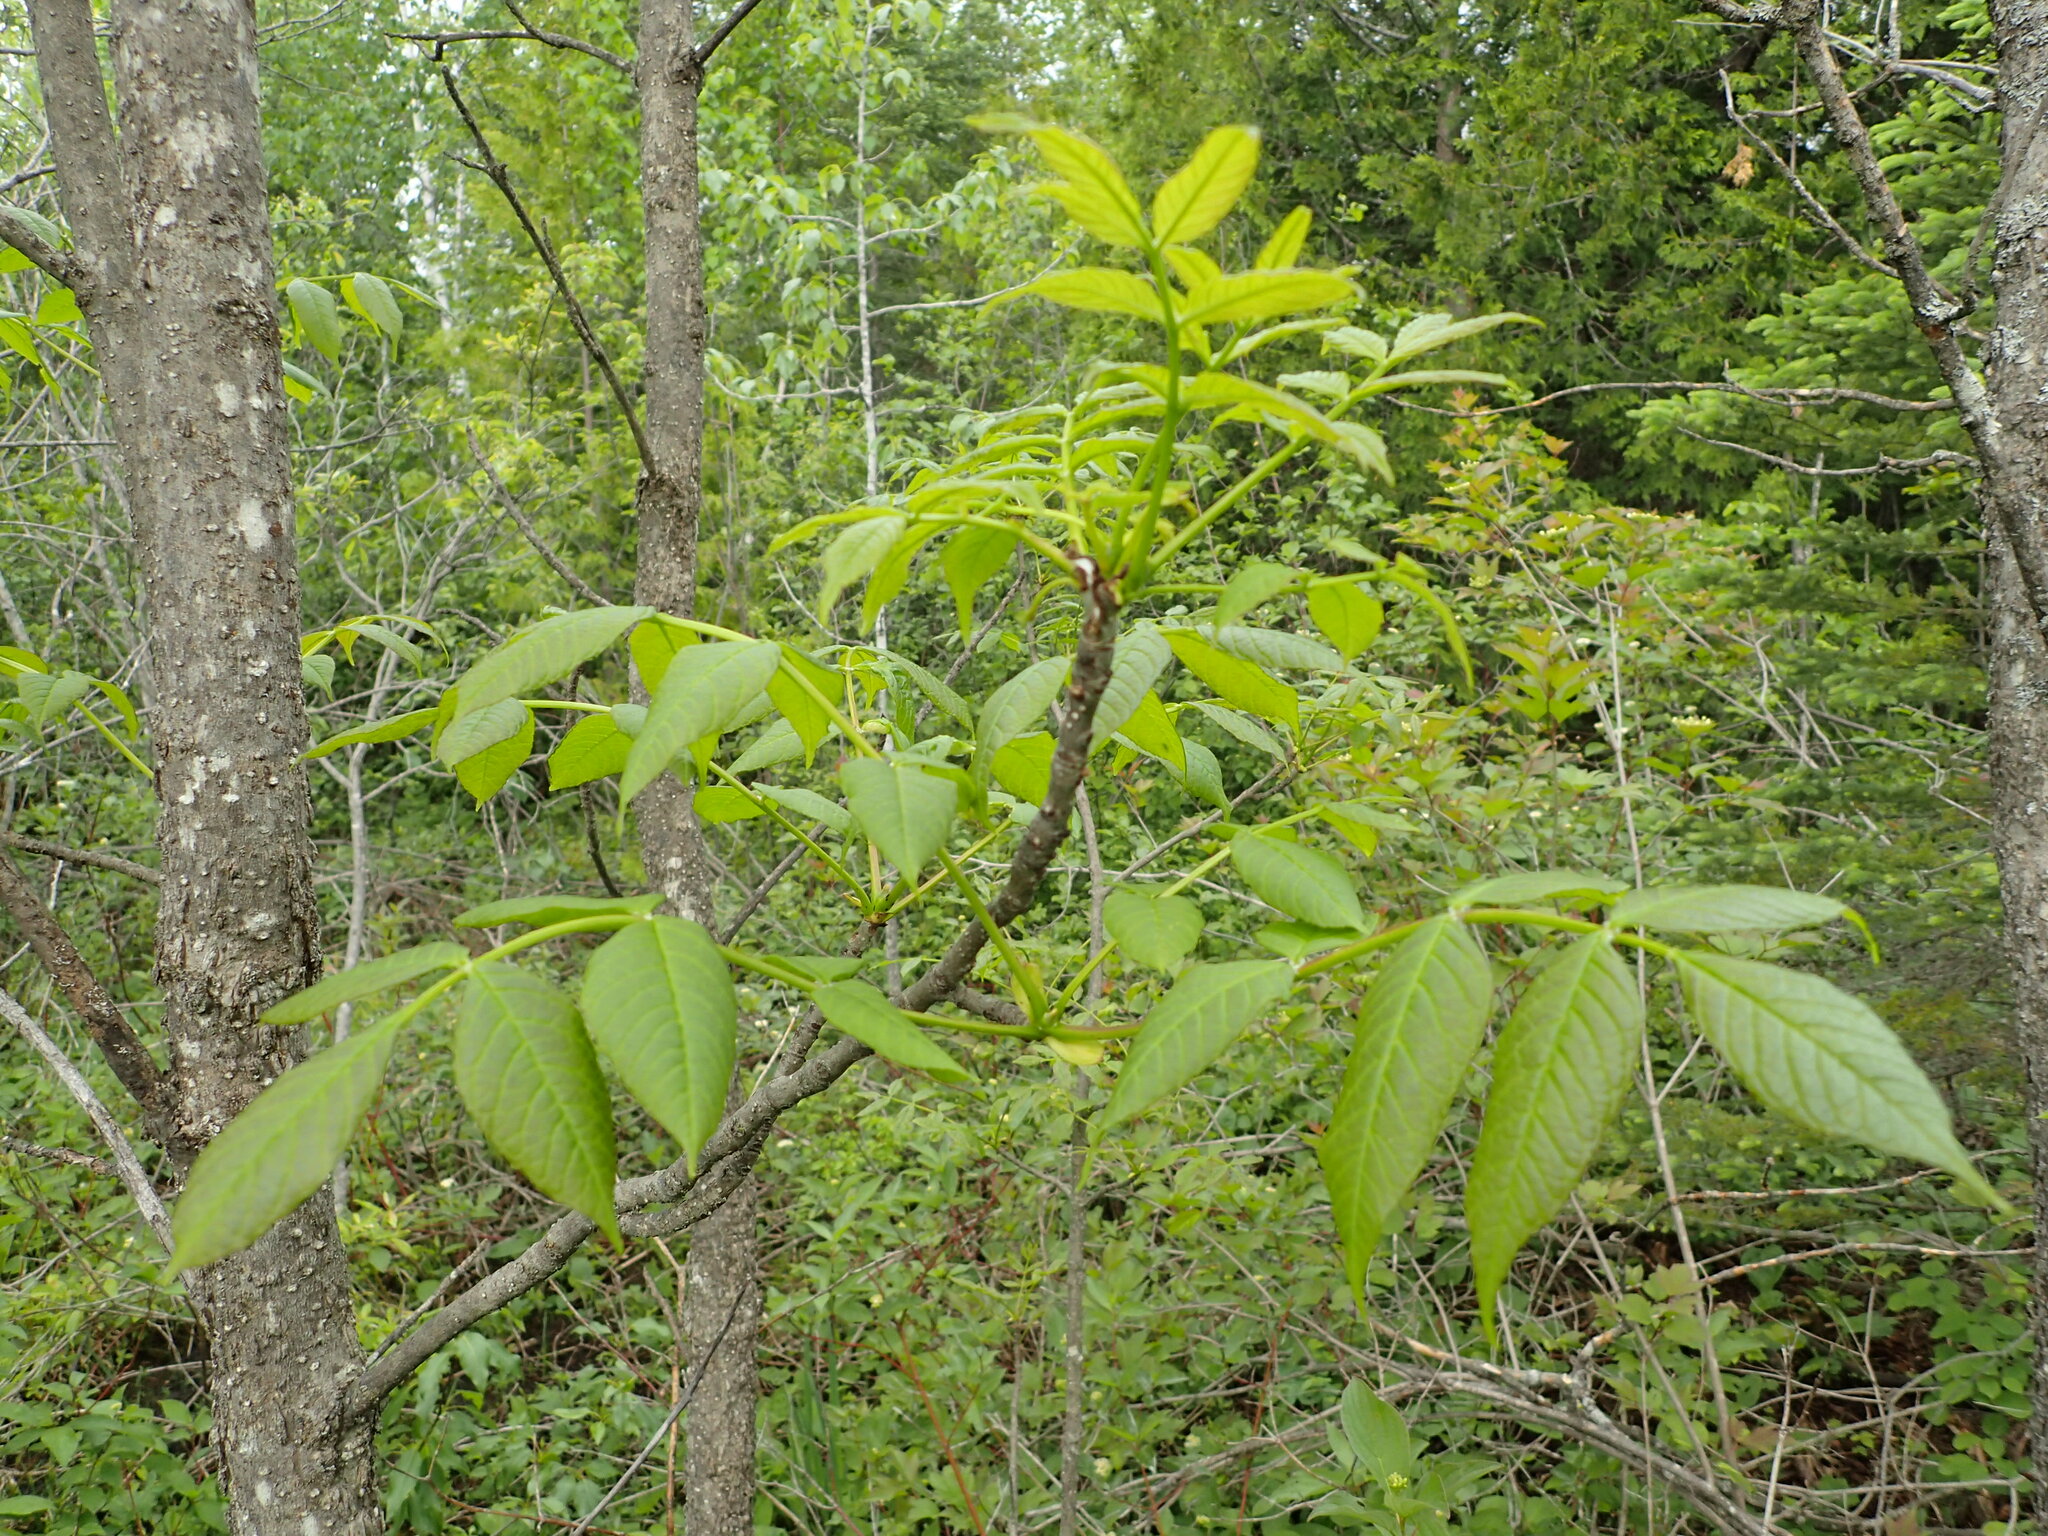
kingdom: Plantae
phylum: Tracheophyta
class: Magnoliopsida
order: Lamiales
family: Oleaceae
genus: Fraxinus
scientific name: Fraxinus nigra
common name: Black ash
